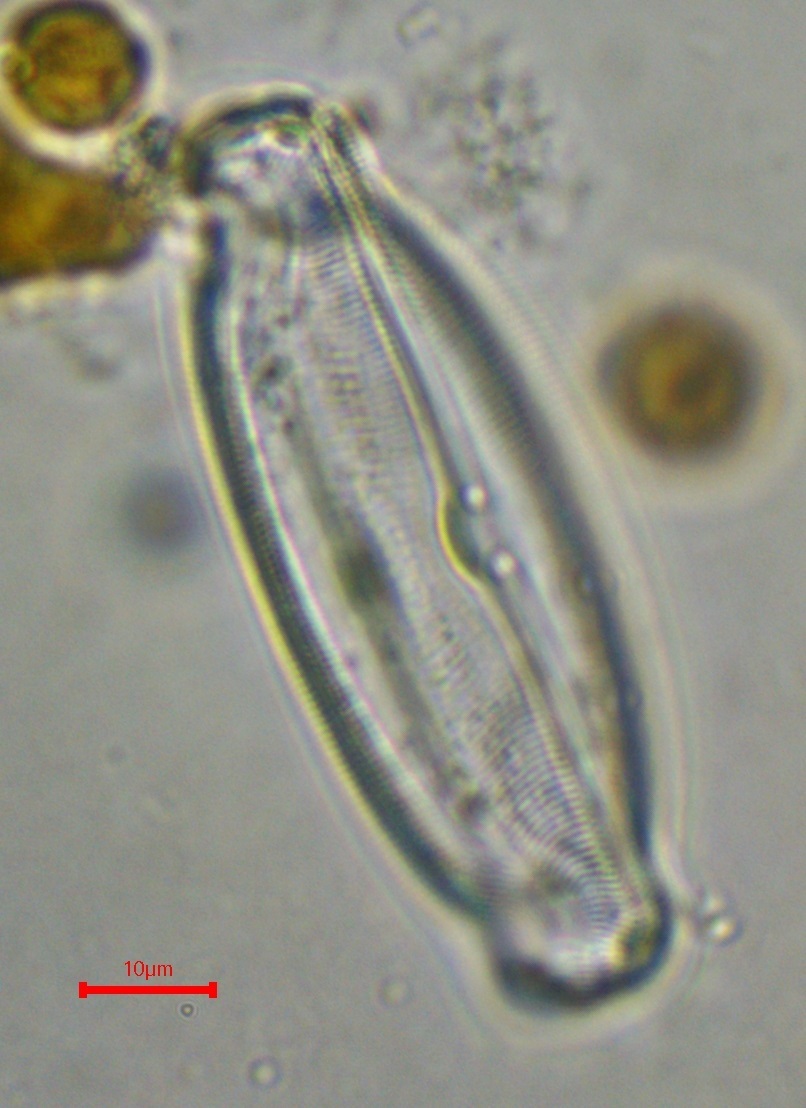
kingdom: Chromista
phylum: Ochrophyta
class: Bacillariophyceae
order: Naviculales
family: Naviculaceae
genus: Caloneis
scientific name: Caloneis amphisbaena
